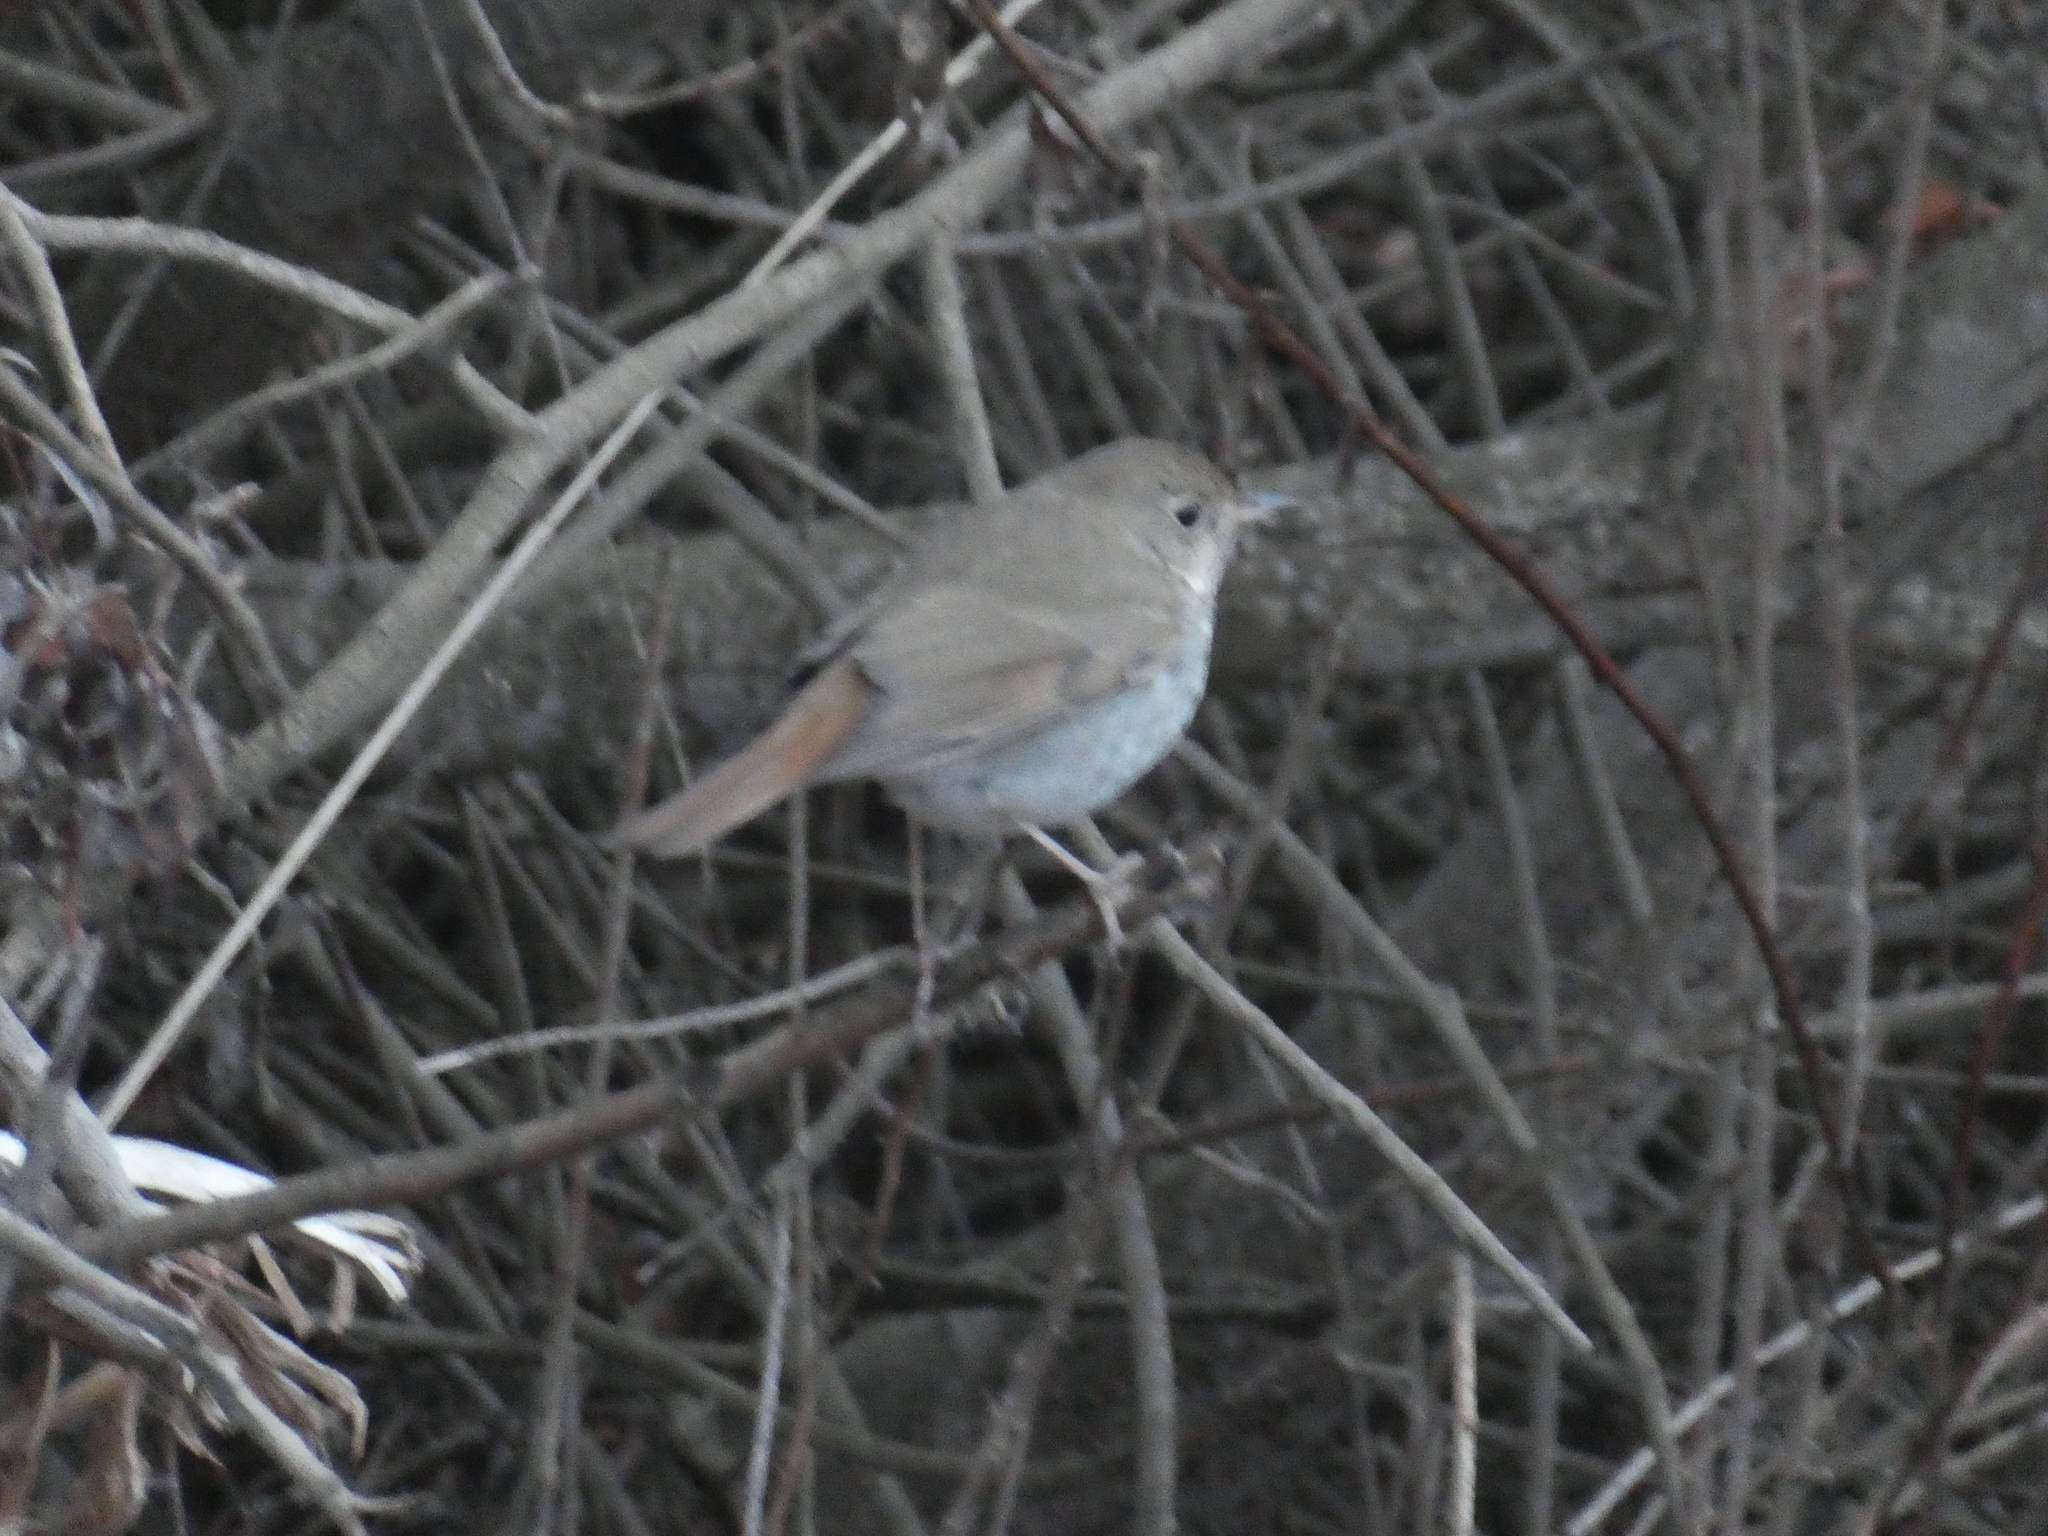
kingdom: Animalia
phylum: Chordata
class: Aves
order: Passeriformes
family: Turdidae
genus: Catharus
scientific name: Catharus guttatus
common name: Hermit thrush
